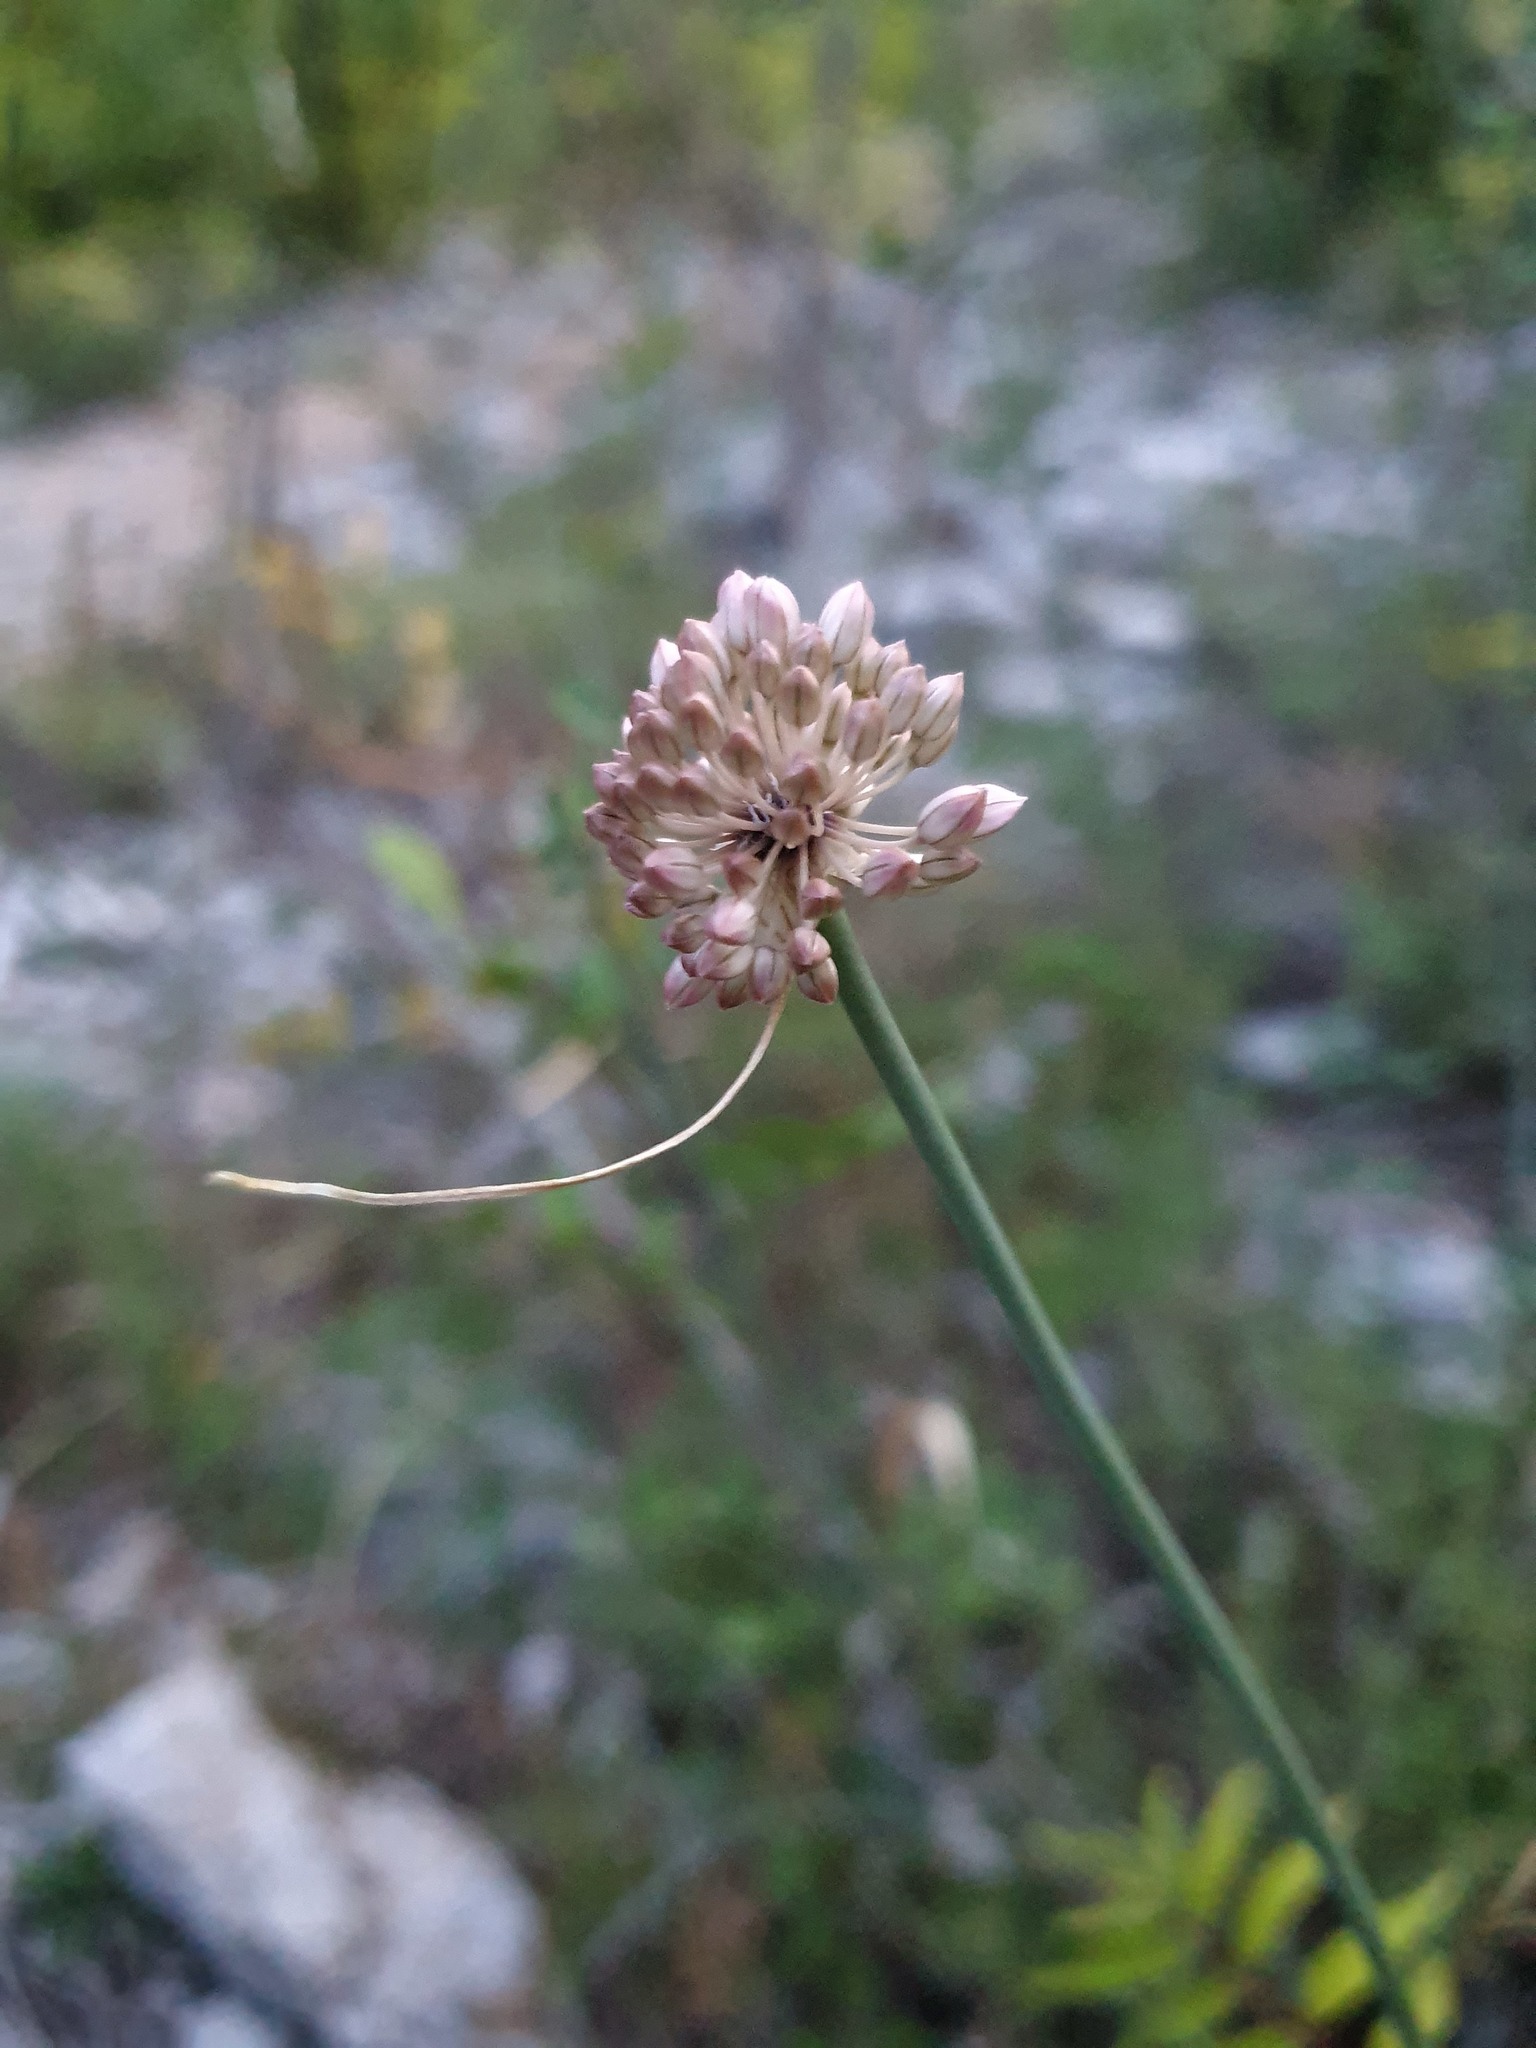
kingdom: Plantae
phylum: Tracheophyta
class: Liliopsida
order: Asparagales
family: Amaryllidaceae
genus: Allium
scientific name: Allium rubriflorum
